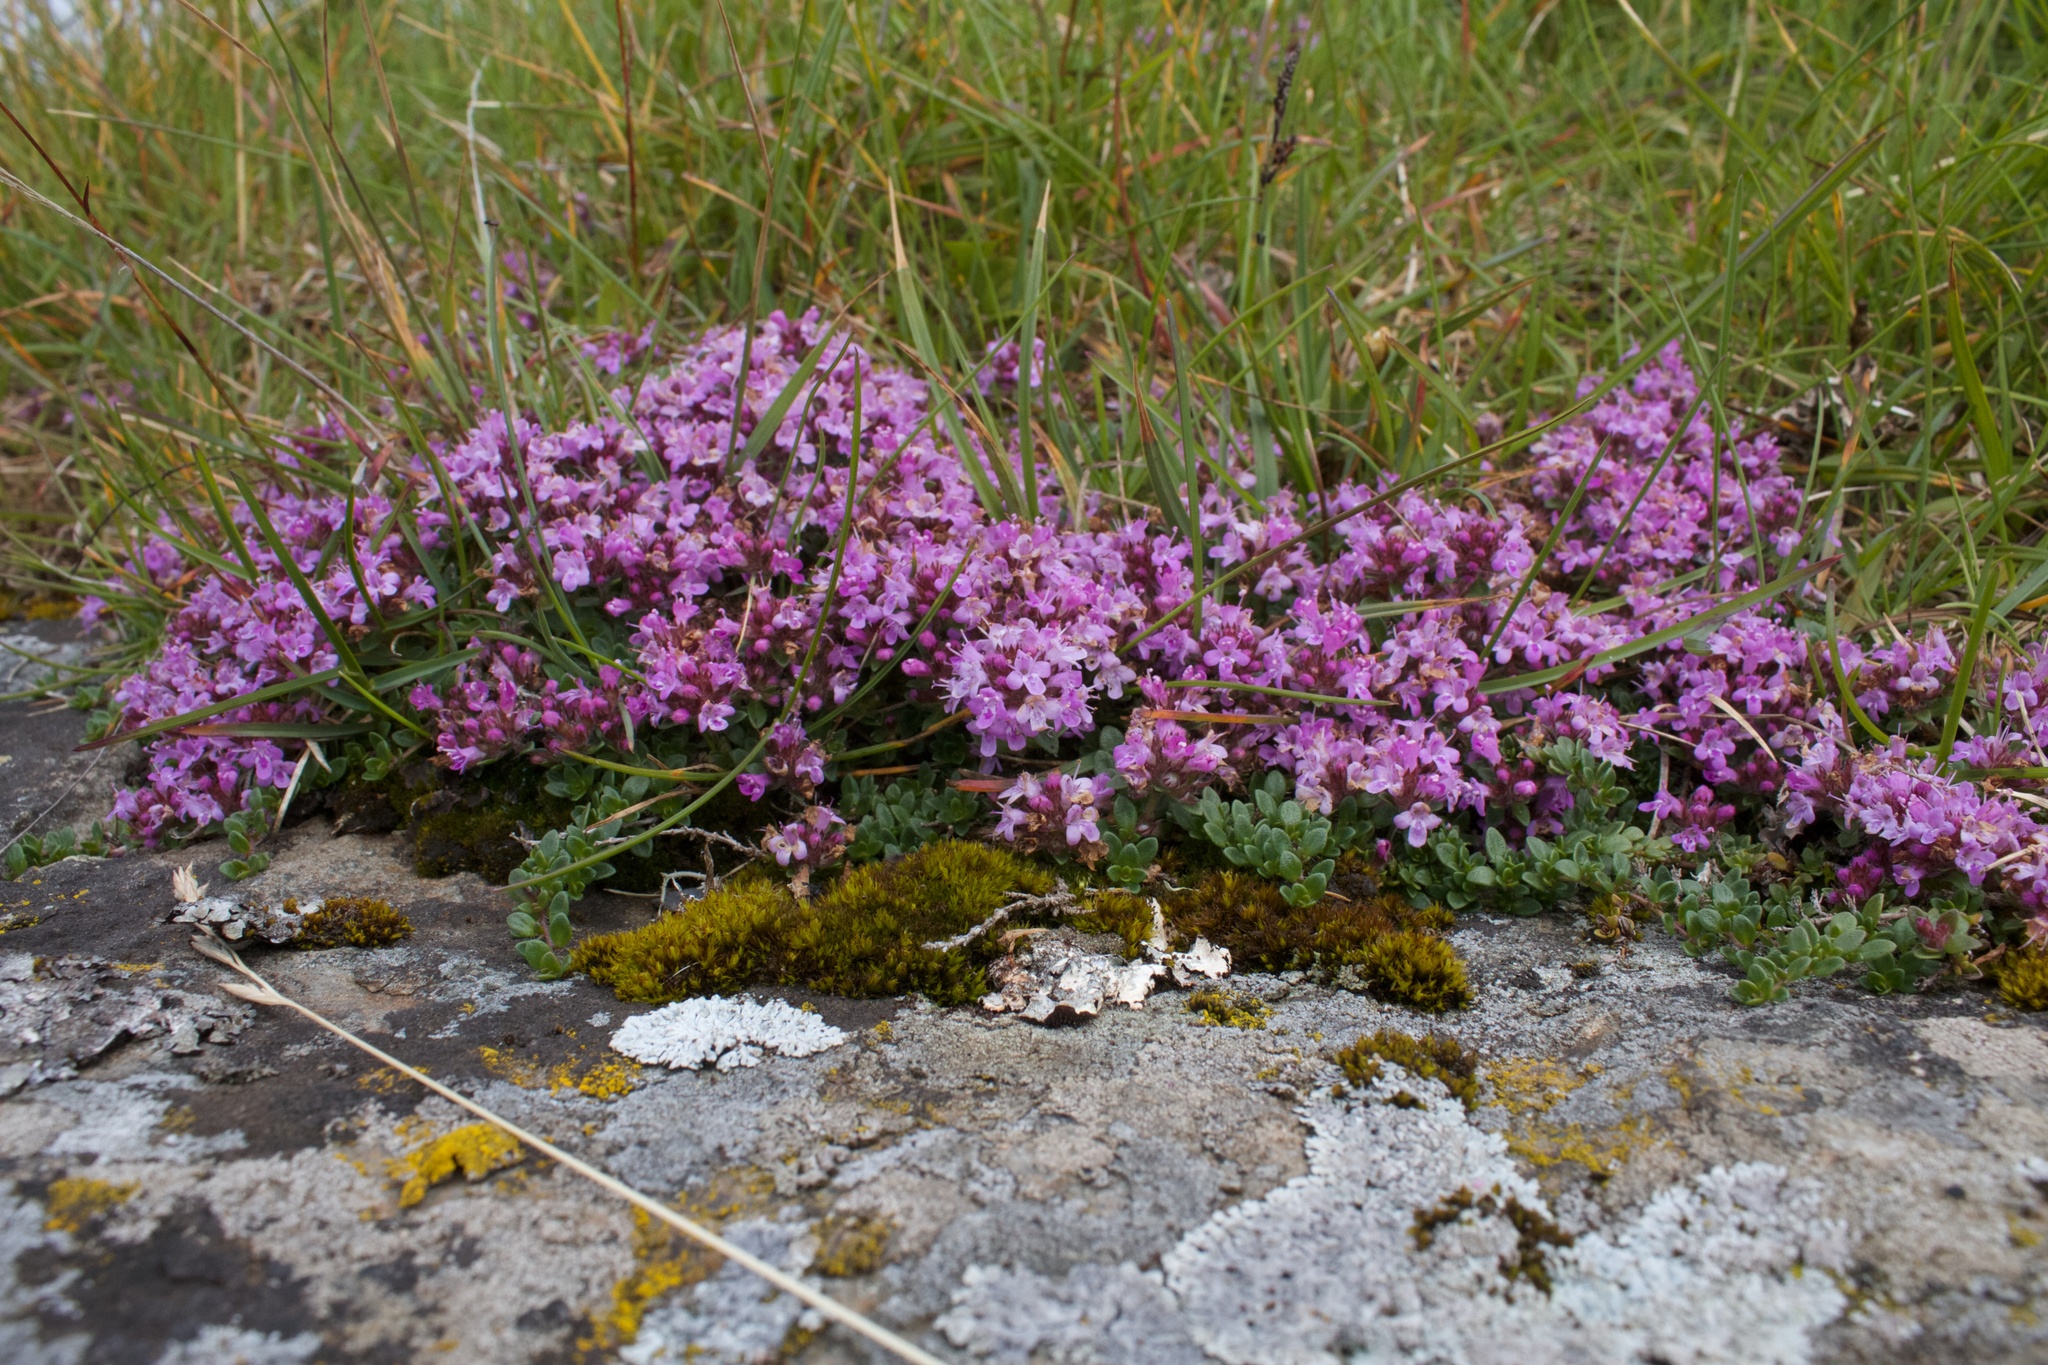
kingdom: Plantae
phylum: Tracheophyta
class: Magnoliopsida
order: Lamiales
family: Lamiaceae
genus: Thymus
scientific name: Thymus praecox
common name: Wild thyme
